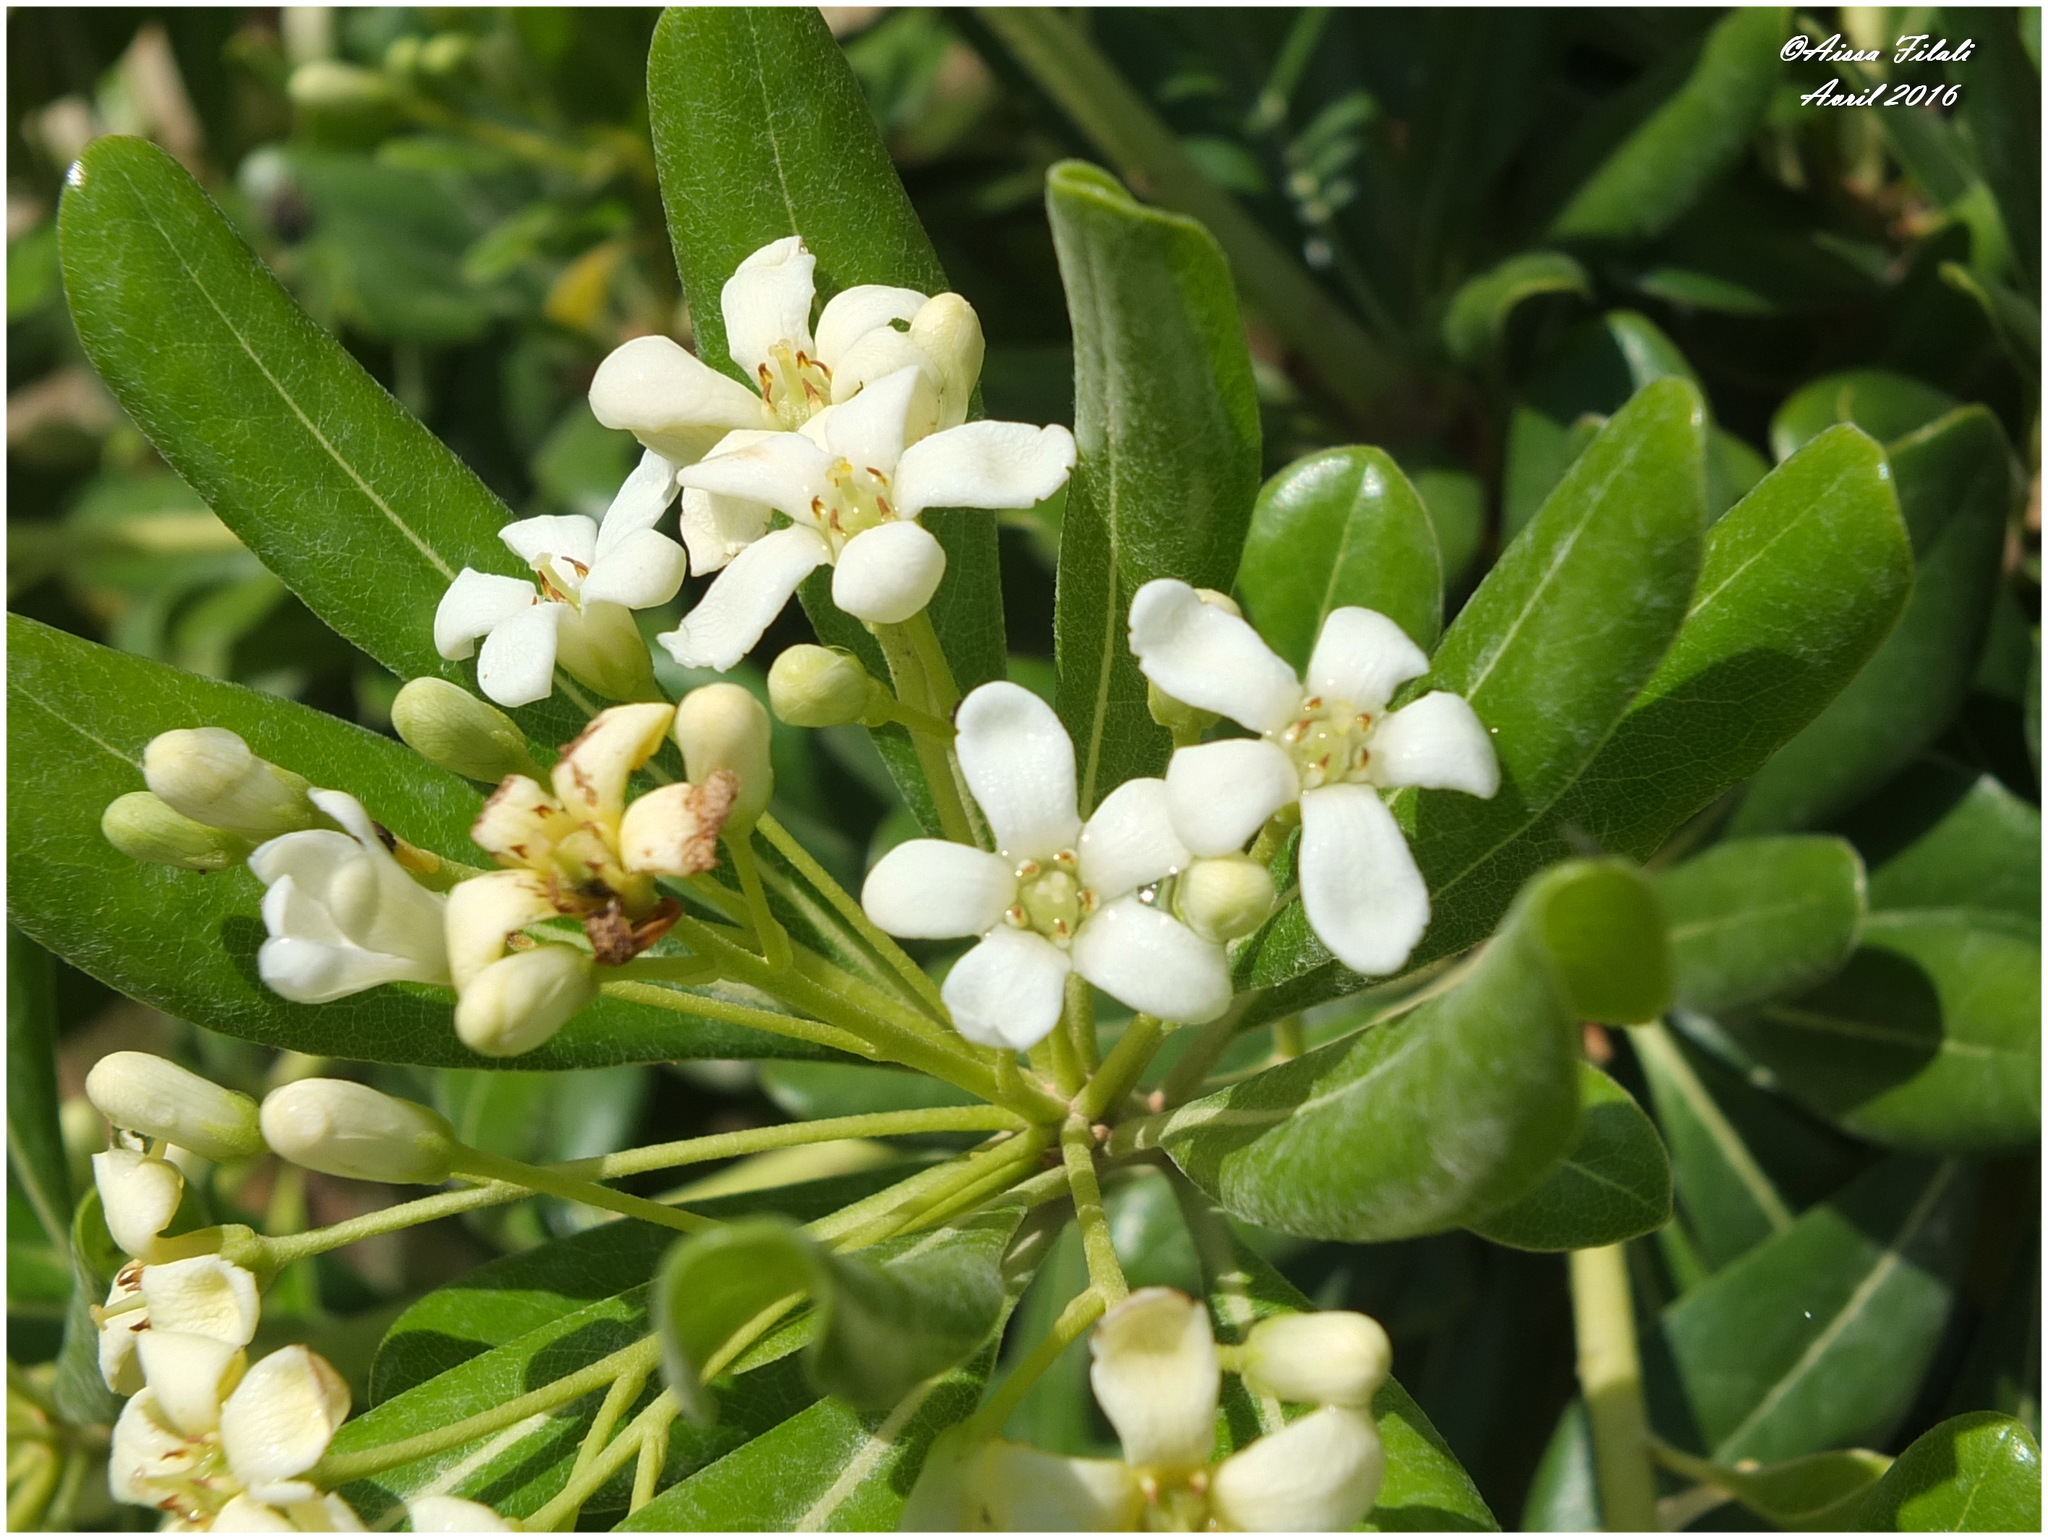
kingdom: Plantae
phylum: Tracheophyta
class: Magnoliopsida
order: Apiales
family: Pittosporaceae
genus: Pittosporum
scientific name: Pittosporum tobira
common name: Japanese cheesewood
